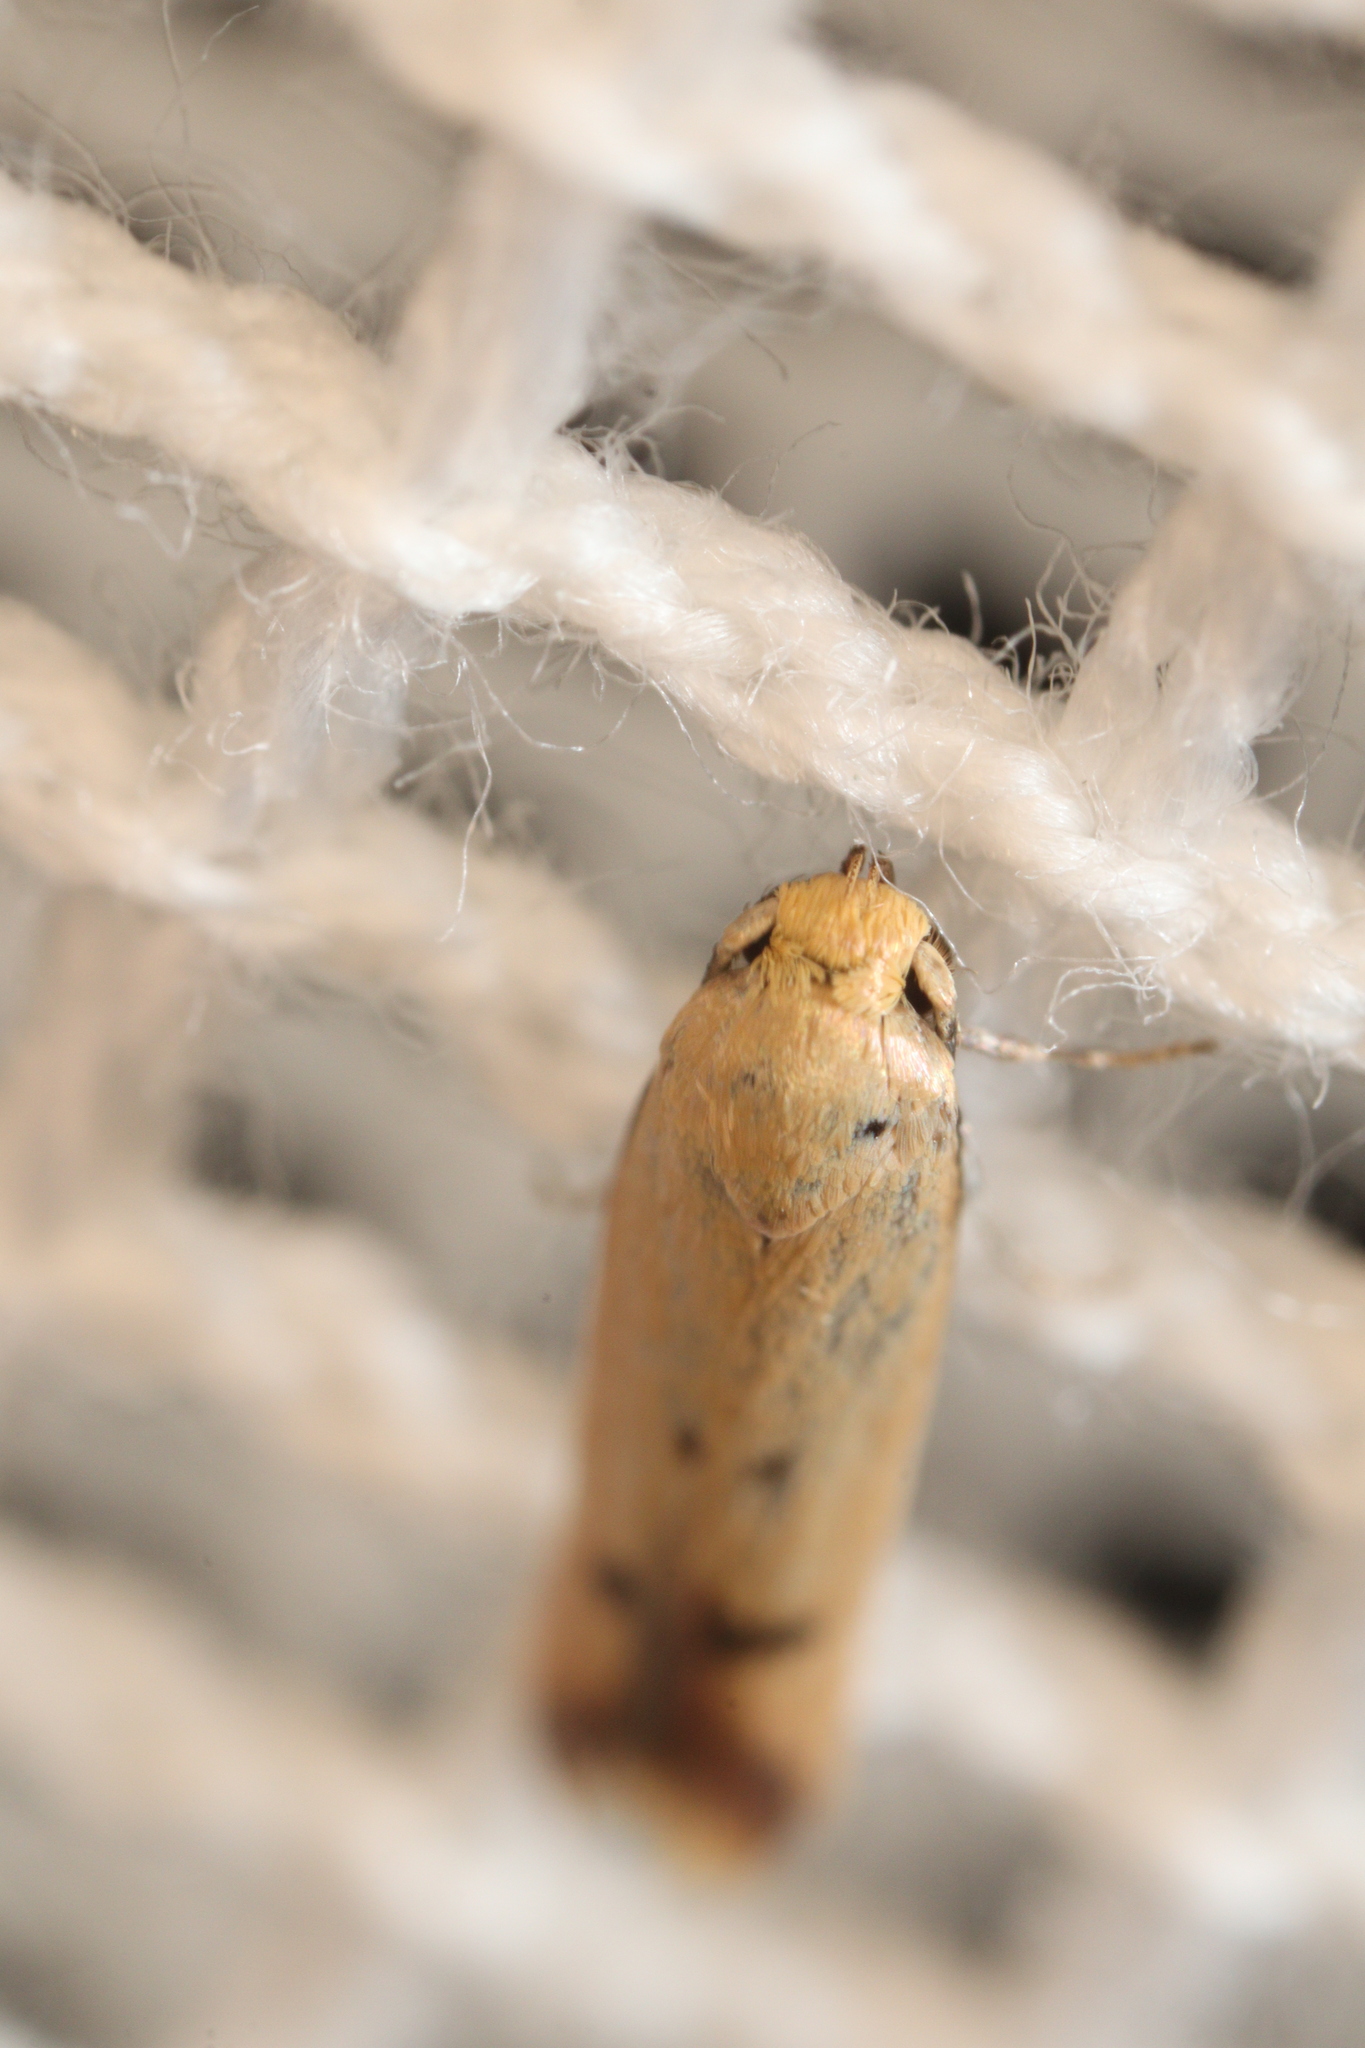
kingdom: Animalia
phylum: Arthropoda
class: Insecta
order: Lepidoptera
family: Oecophoridae
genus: Tachystola
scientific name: Tachystola hemisema
